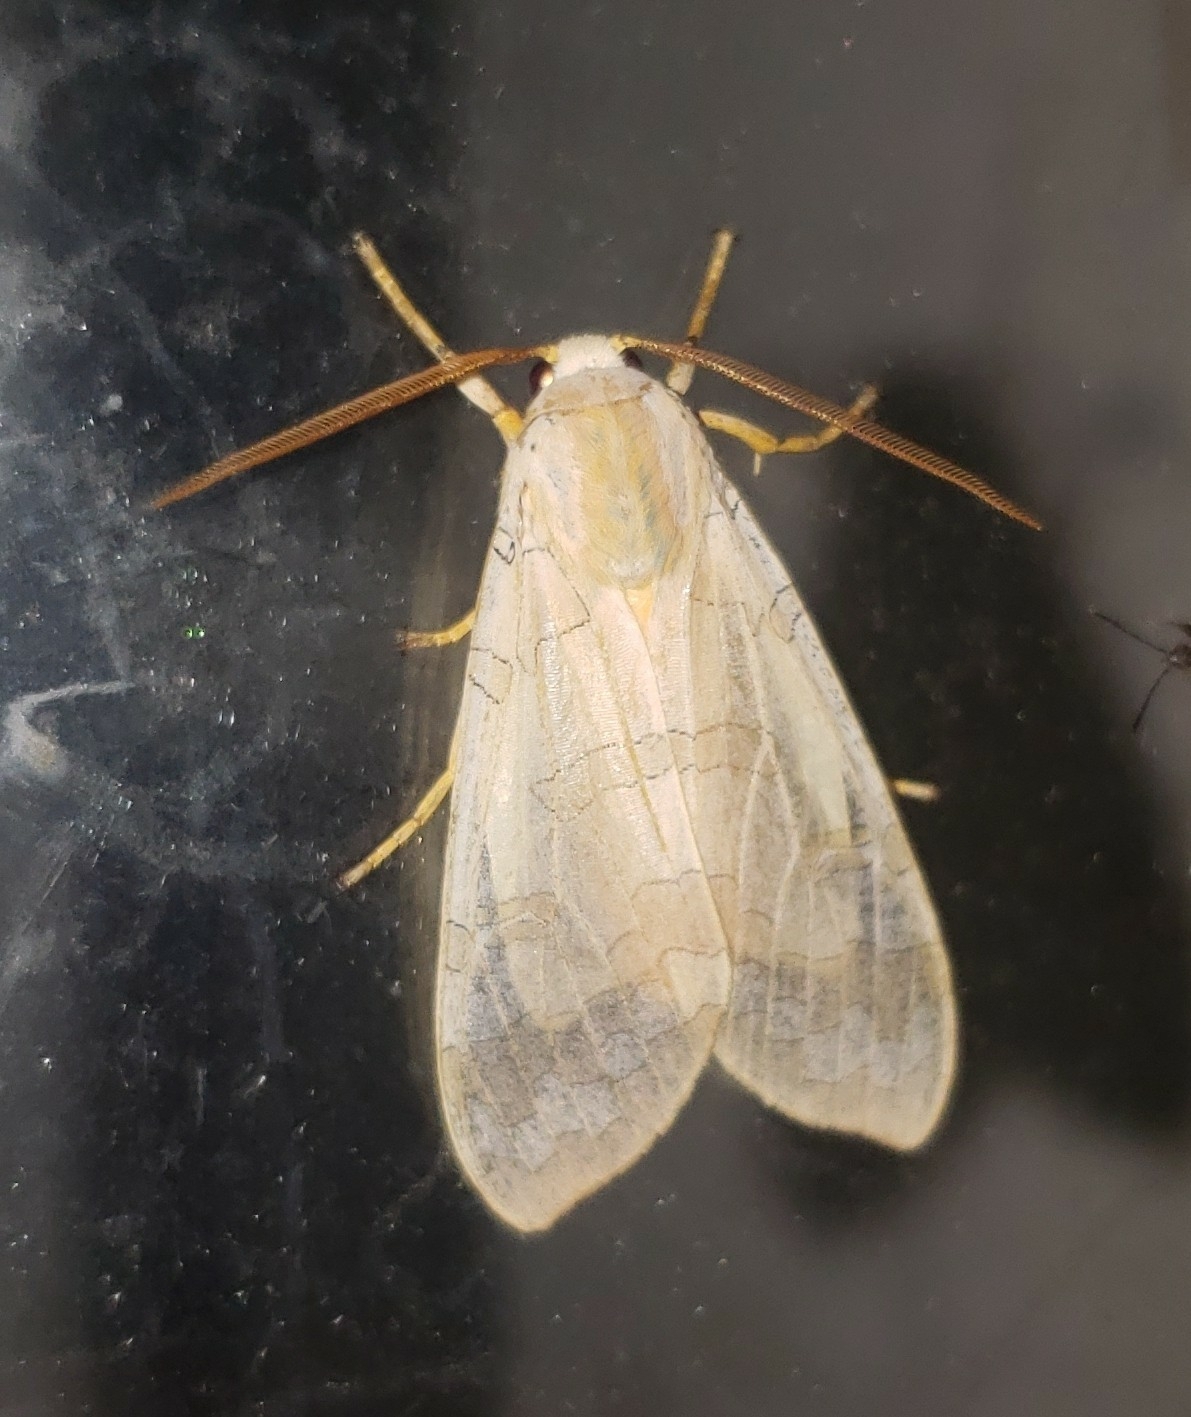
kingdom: Animalia
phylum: Arthropoda
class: Insecta
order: Lepidoptera
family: Erebidae
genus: Halysidota
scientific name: Halysidota
